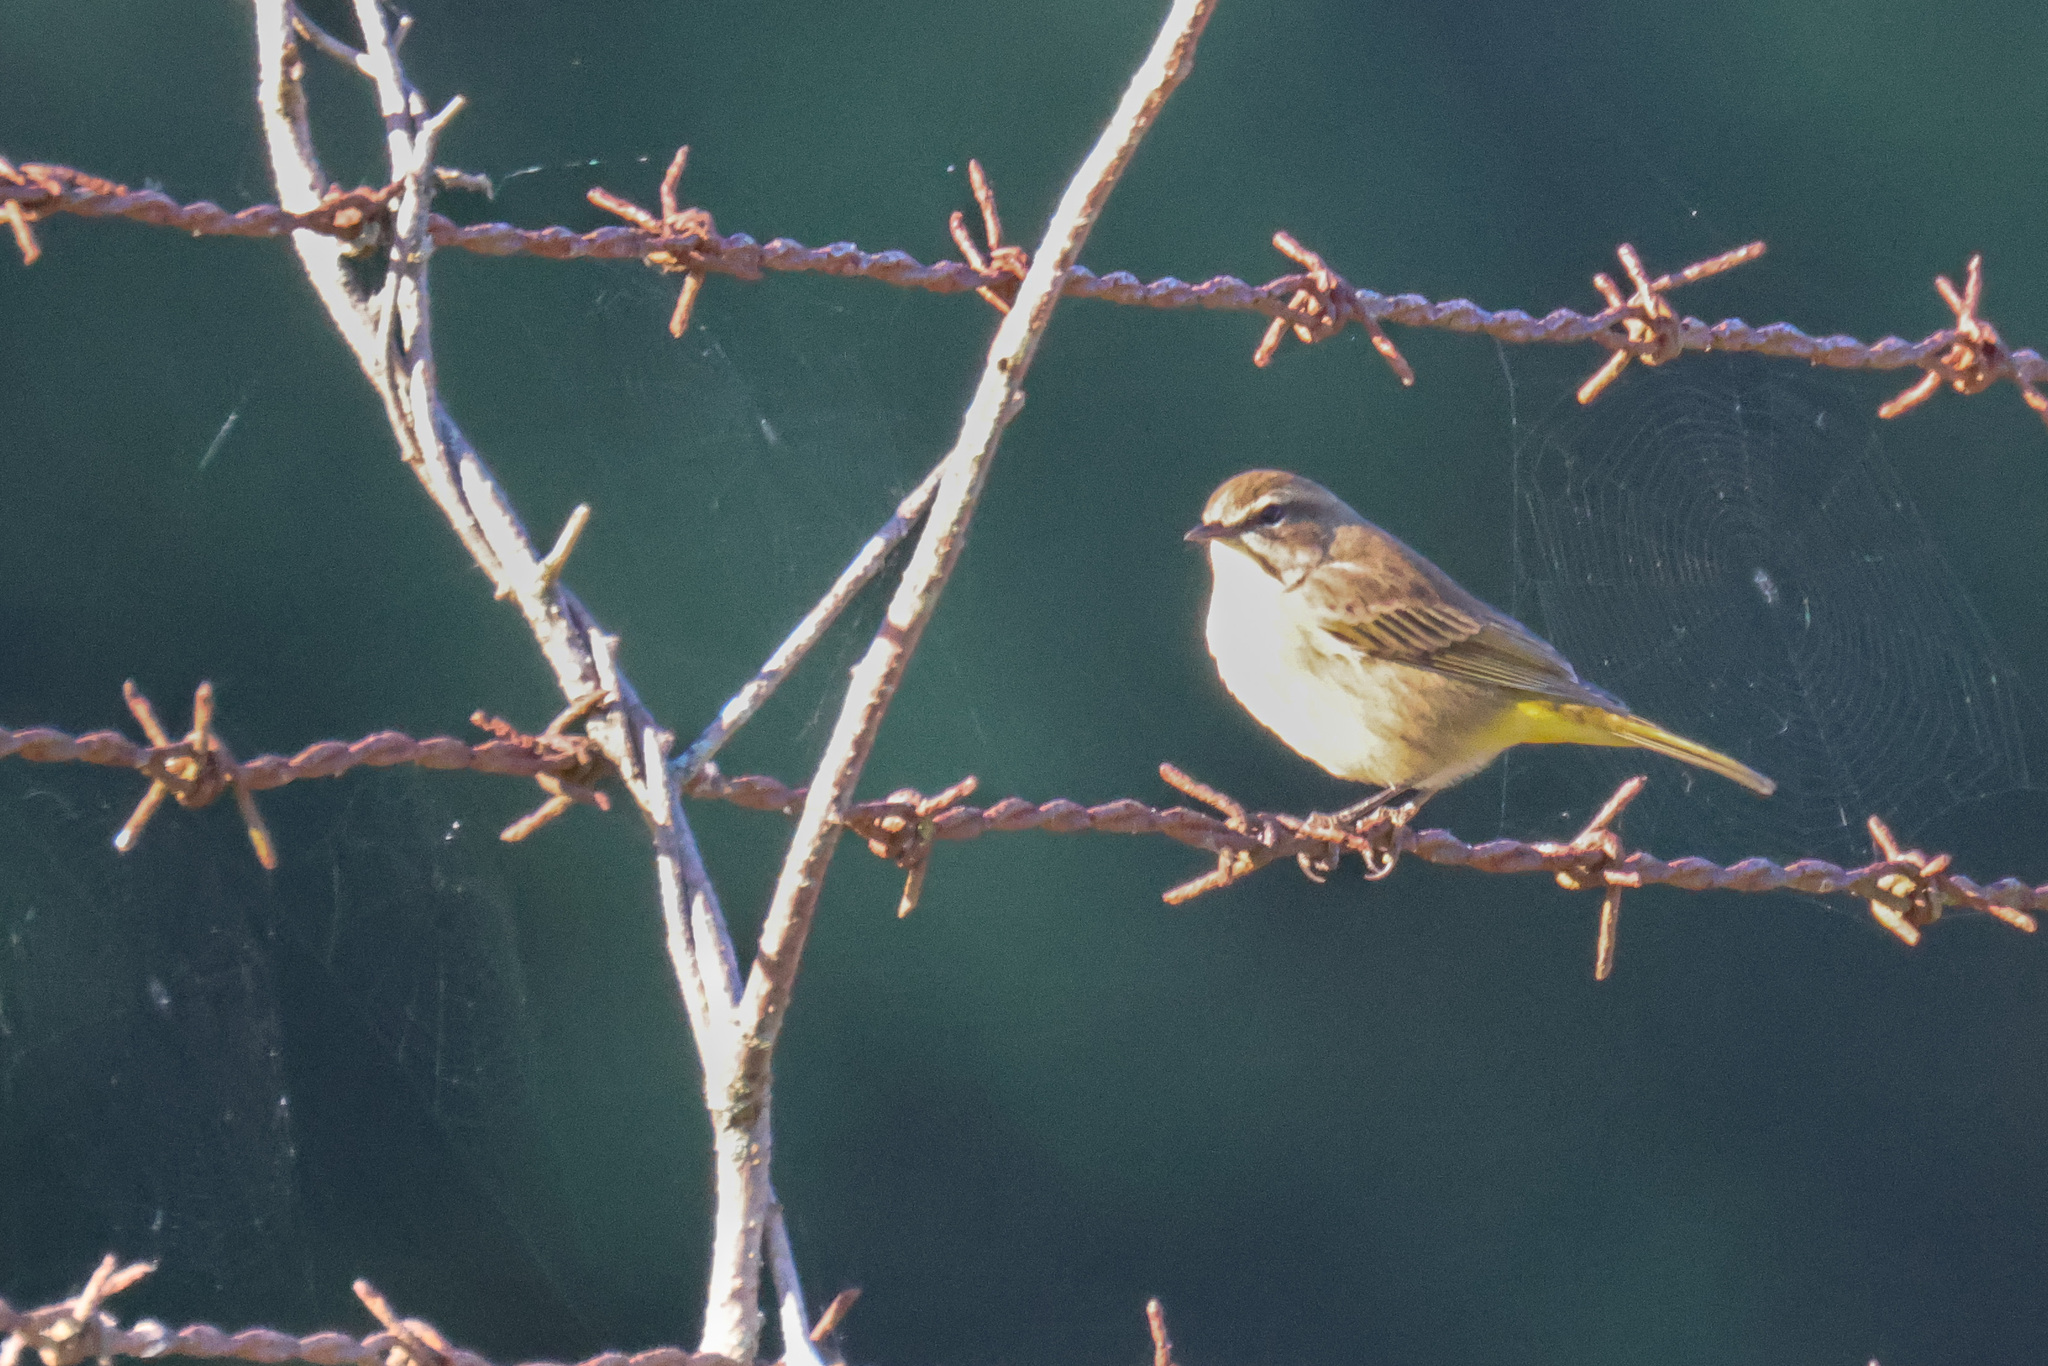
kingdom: Animalia
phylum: Chordata
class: Aves
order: Passeriformes
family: Parulidae
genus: Setophaga
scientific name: Setophaga palmarum
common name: Palm warbler
